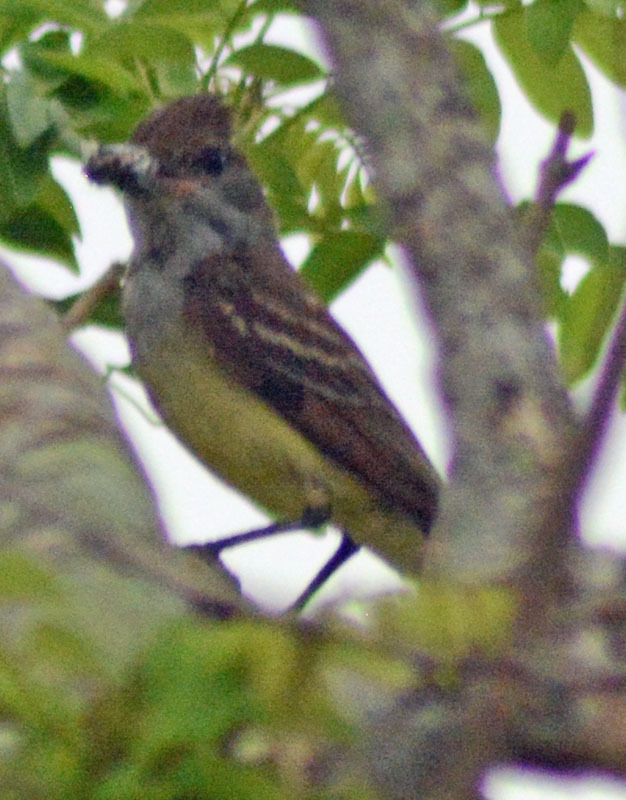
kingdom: Animalia
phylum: Chordata
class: Aves
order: Passeriformes
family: Tyrannidae
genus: Myiarchus
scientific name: Myiarchus tyrannulus
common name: Brown-crested flycatcher
